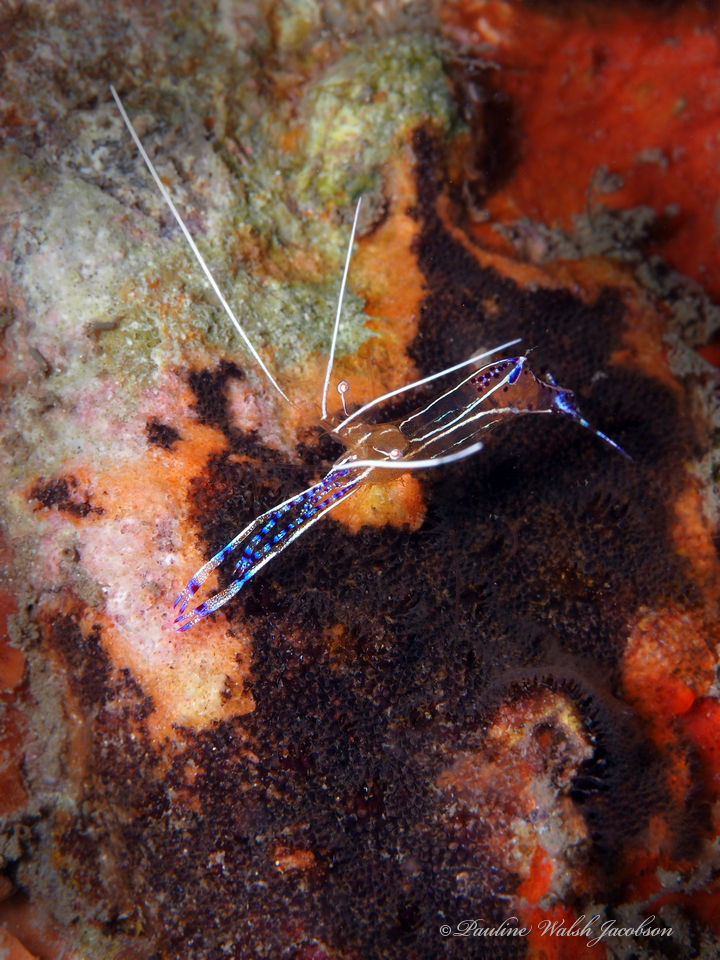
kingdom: Animalia
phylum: Arthropoda
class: Malacostraca
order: Decapoda
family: Palaemonidae
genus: Ancylomenes
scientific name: Ancylomenes pedersoni
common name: Pederson's cleaning shrimp
